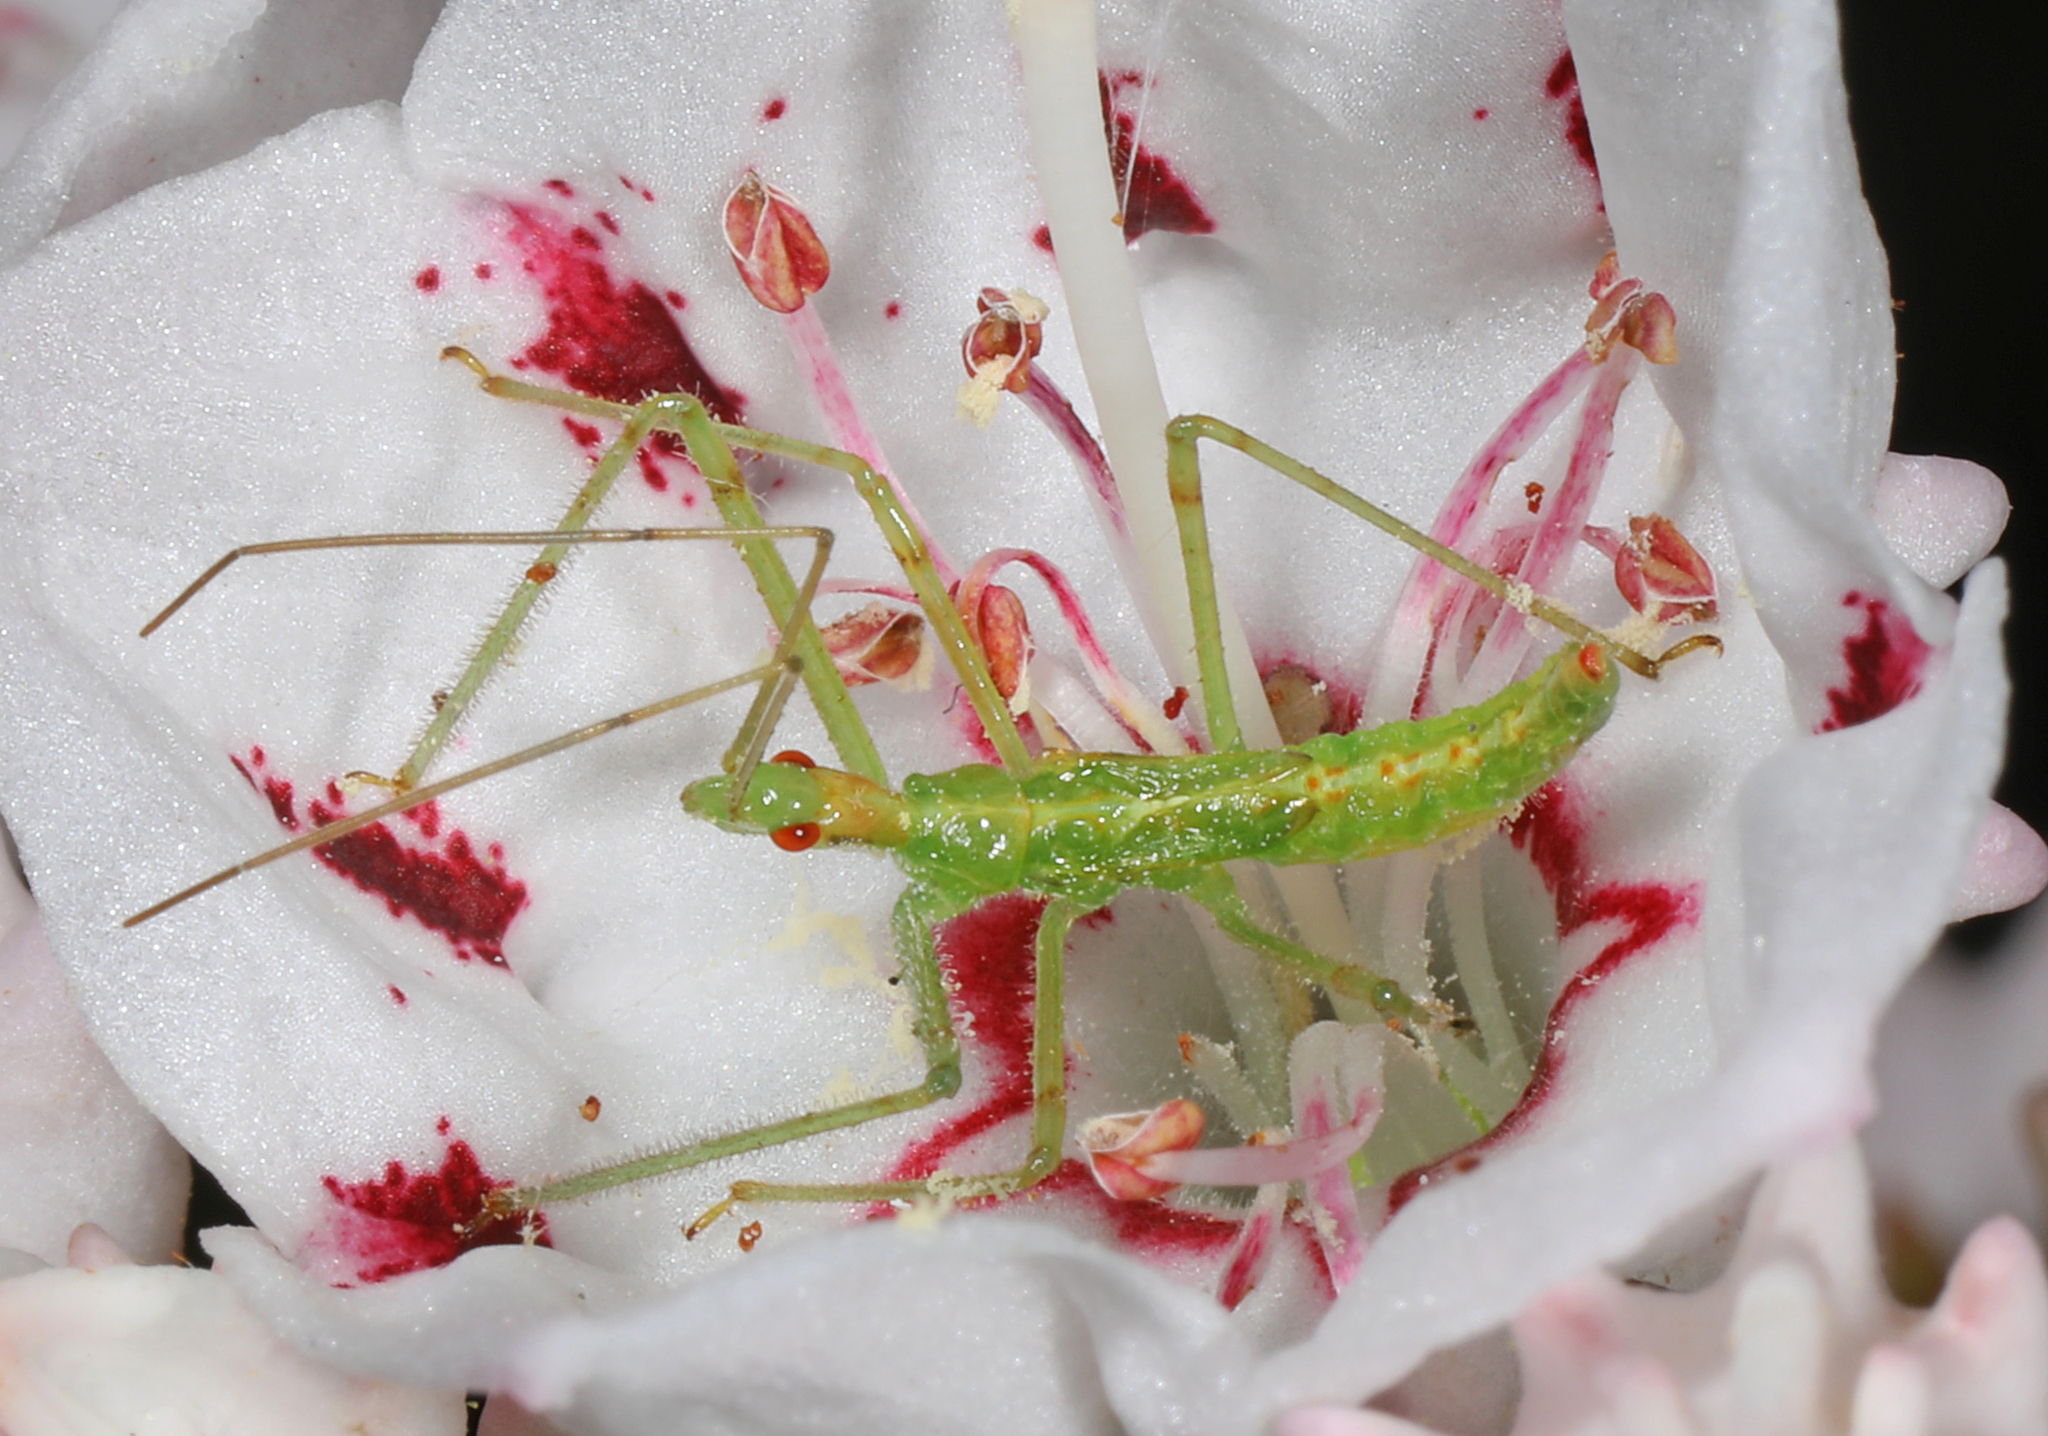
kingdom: Animalia
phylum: Arthropoda
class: Insecta
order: Hemiptera
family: Reduviidae
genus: Zelus
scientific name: Zelus luridus
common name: Pale green assassin bug
